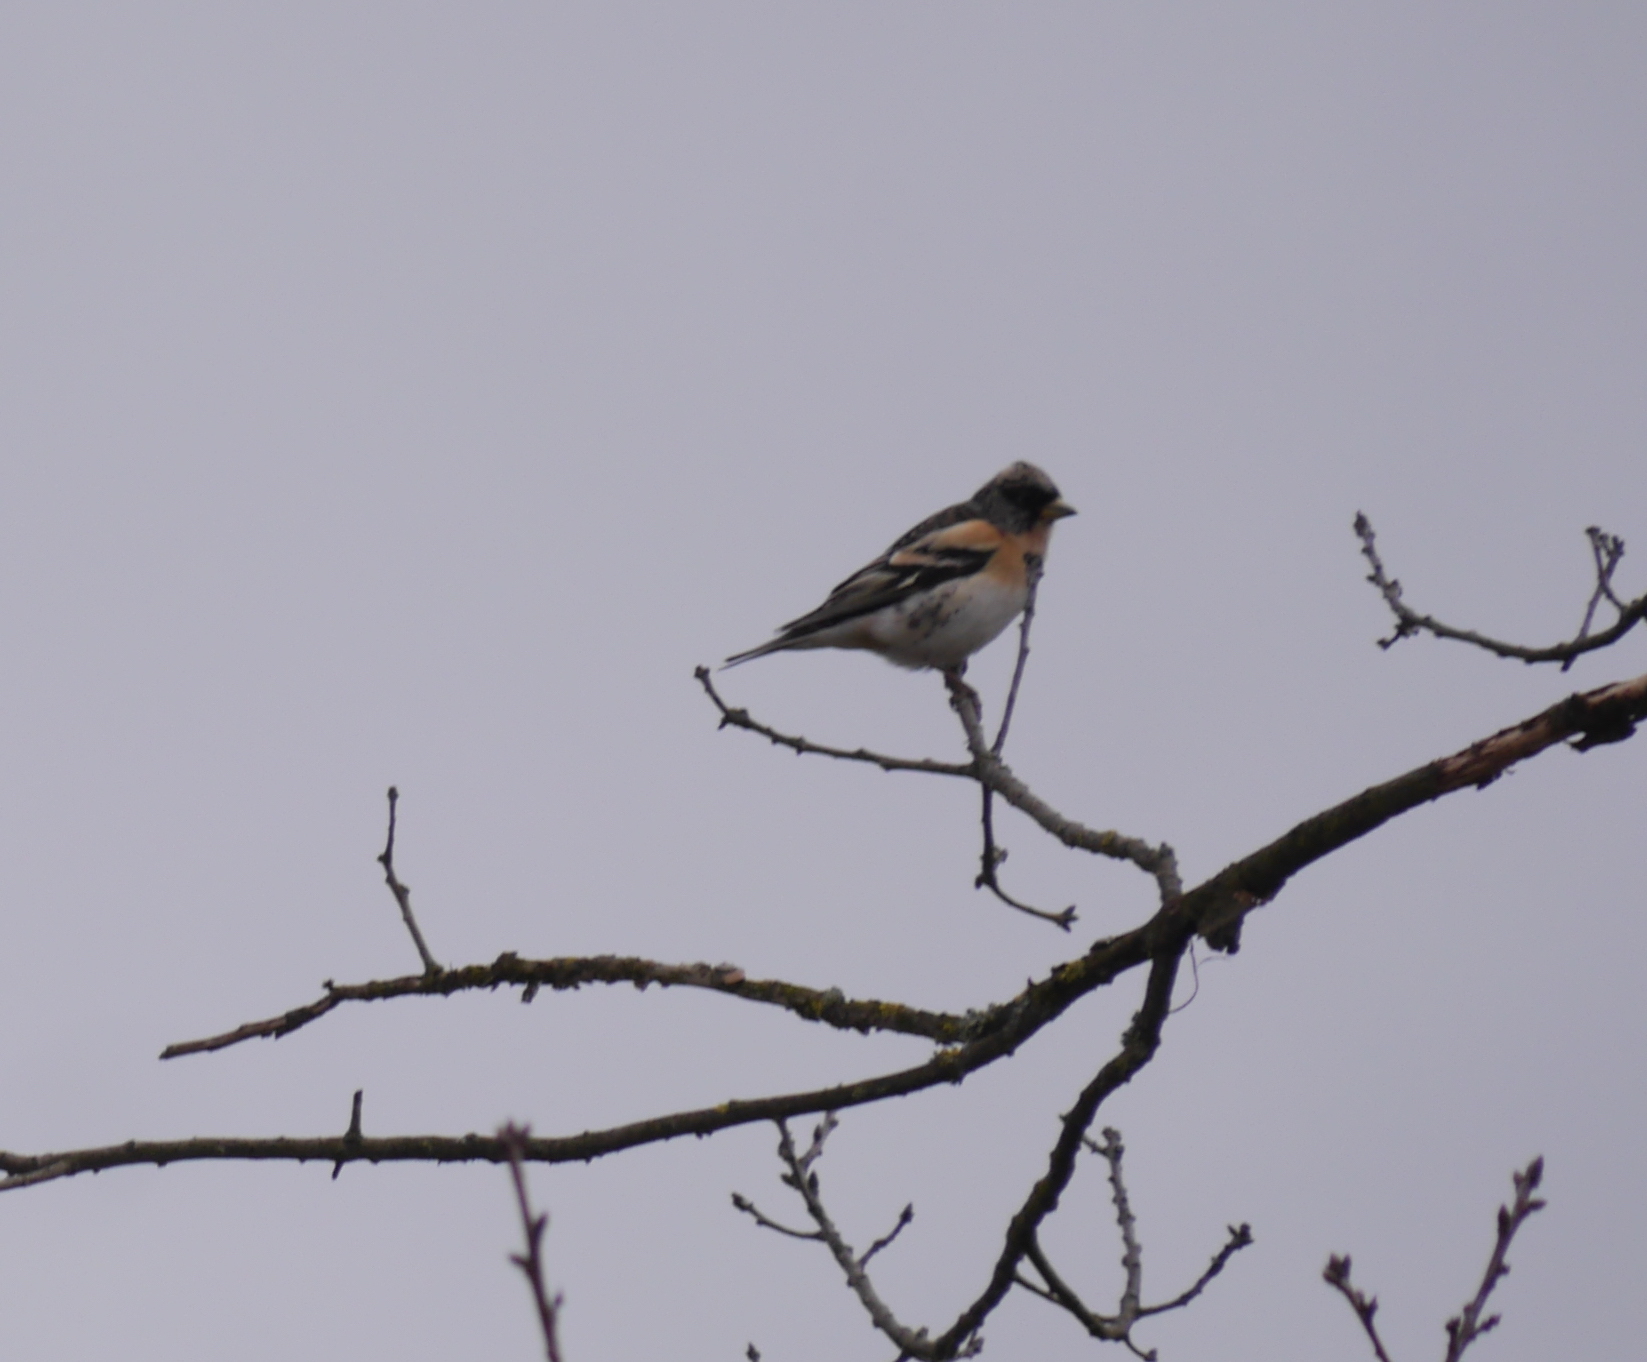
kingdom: Animalia
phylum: Chordata
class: Aves
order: Passeriformes
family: Fringillidae
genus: Fringilla
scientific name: Fringilla montifringilla
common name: Brambling
